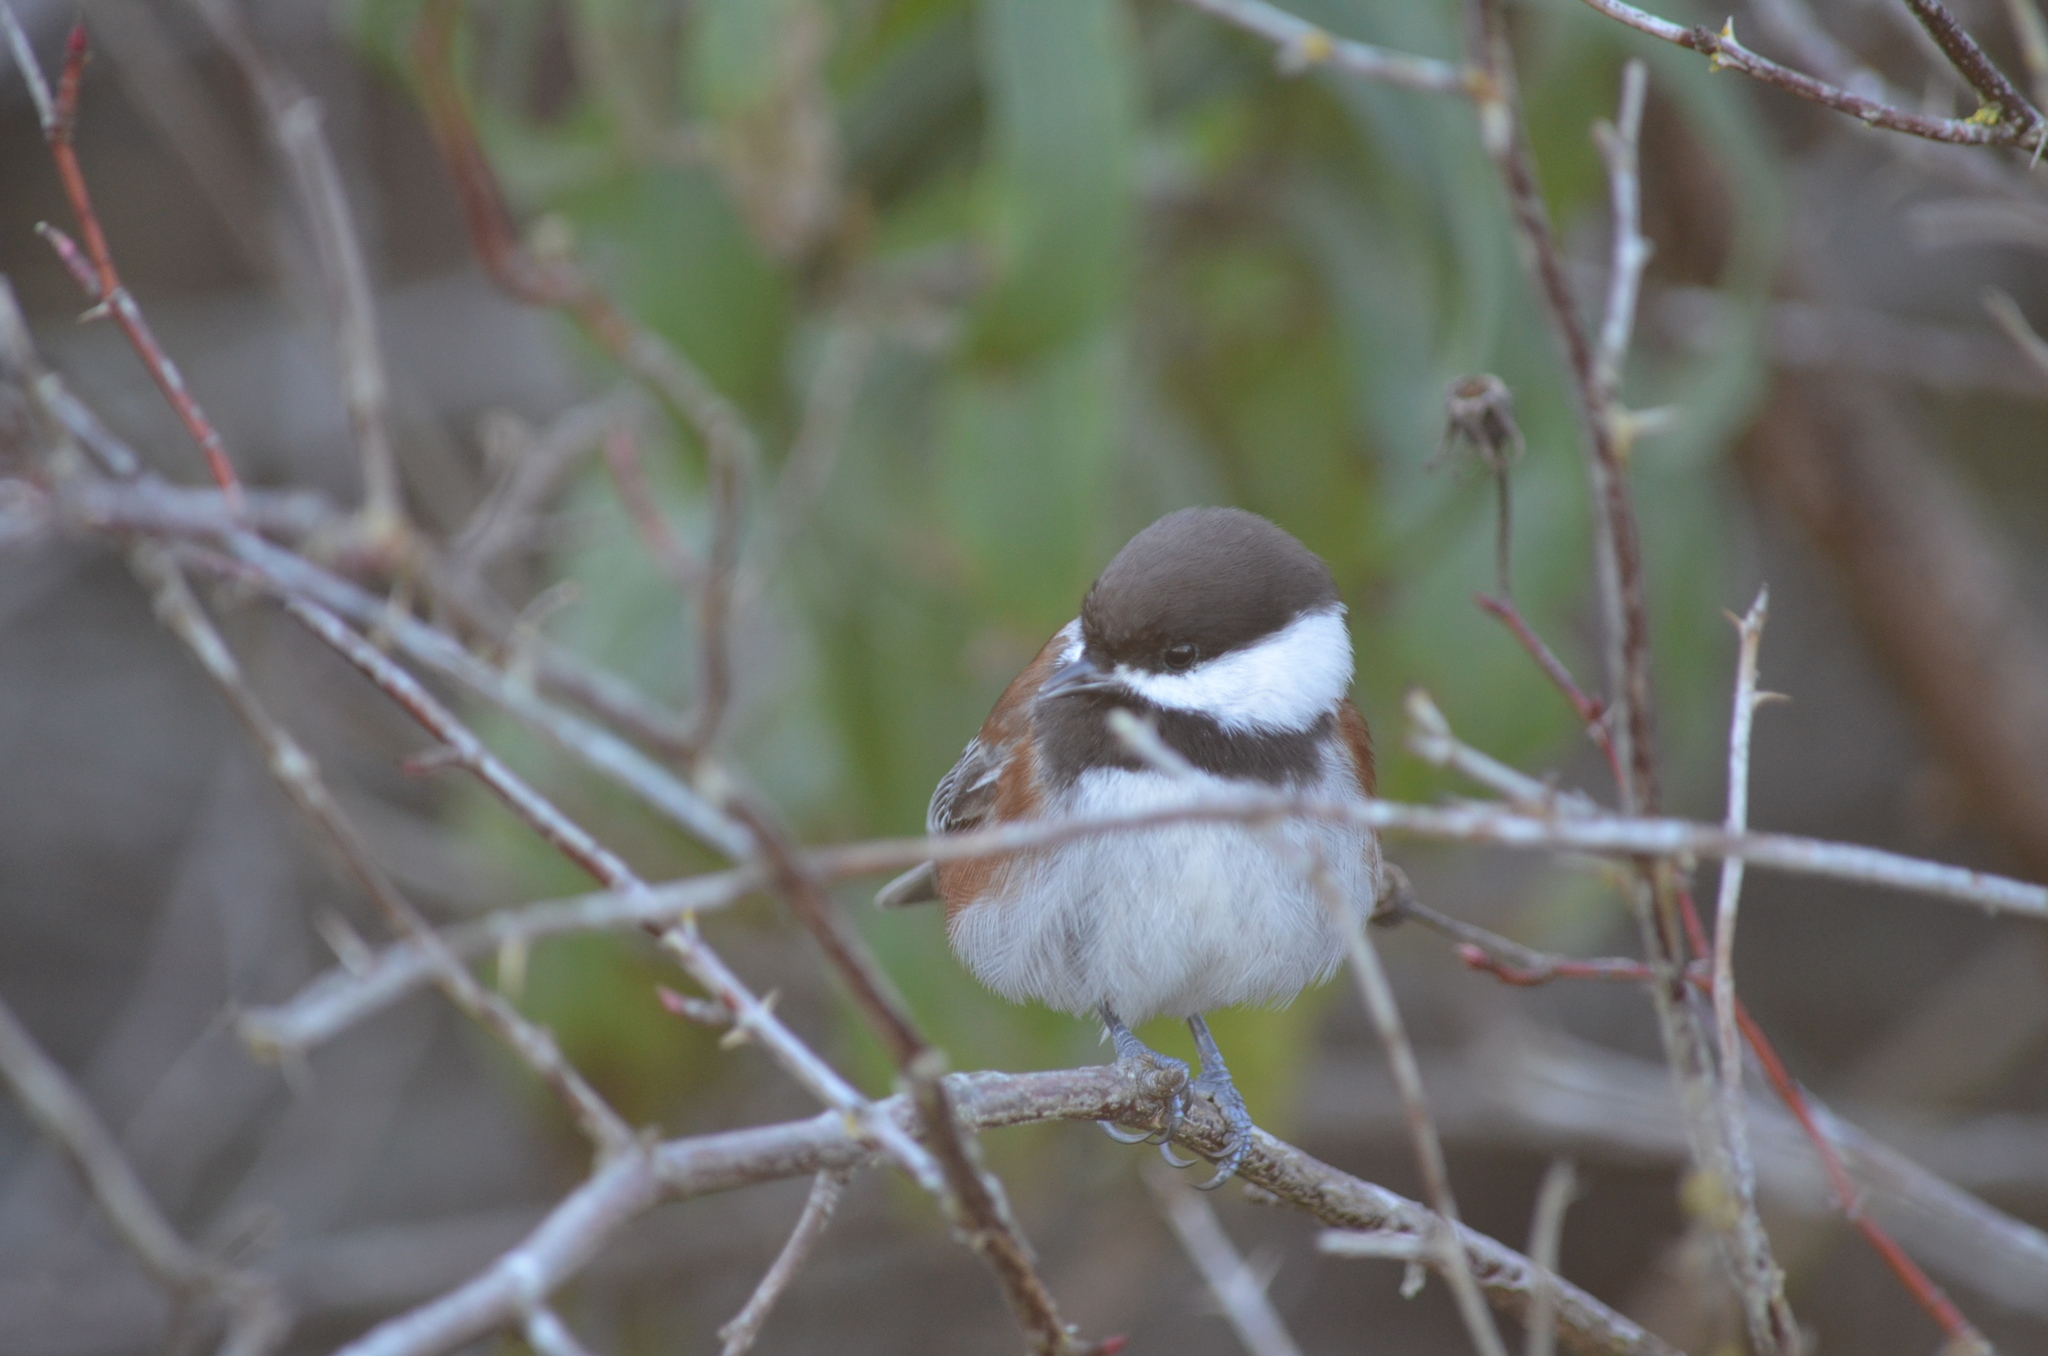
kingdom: Animalia
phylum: Chordata
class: Aves
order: Passeriformes
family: Paridae
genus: Poecile
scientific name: Poecile rufescens
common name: Chestnut-backed chickadee
